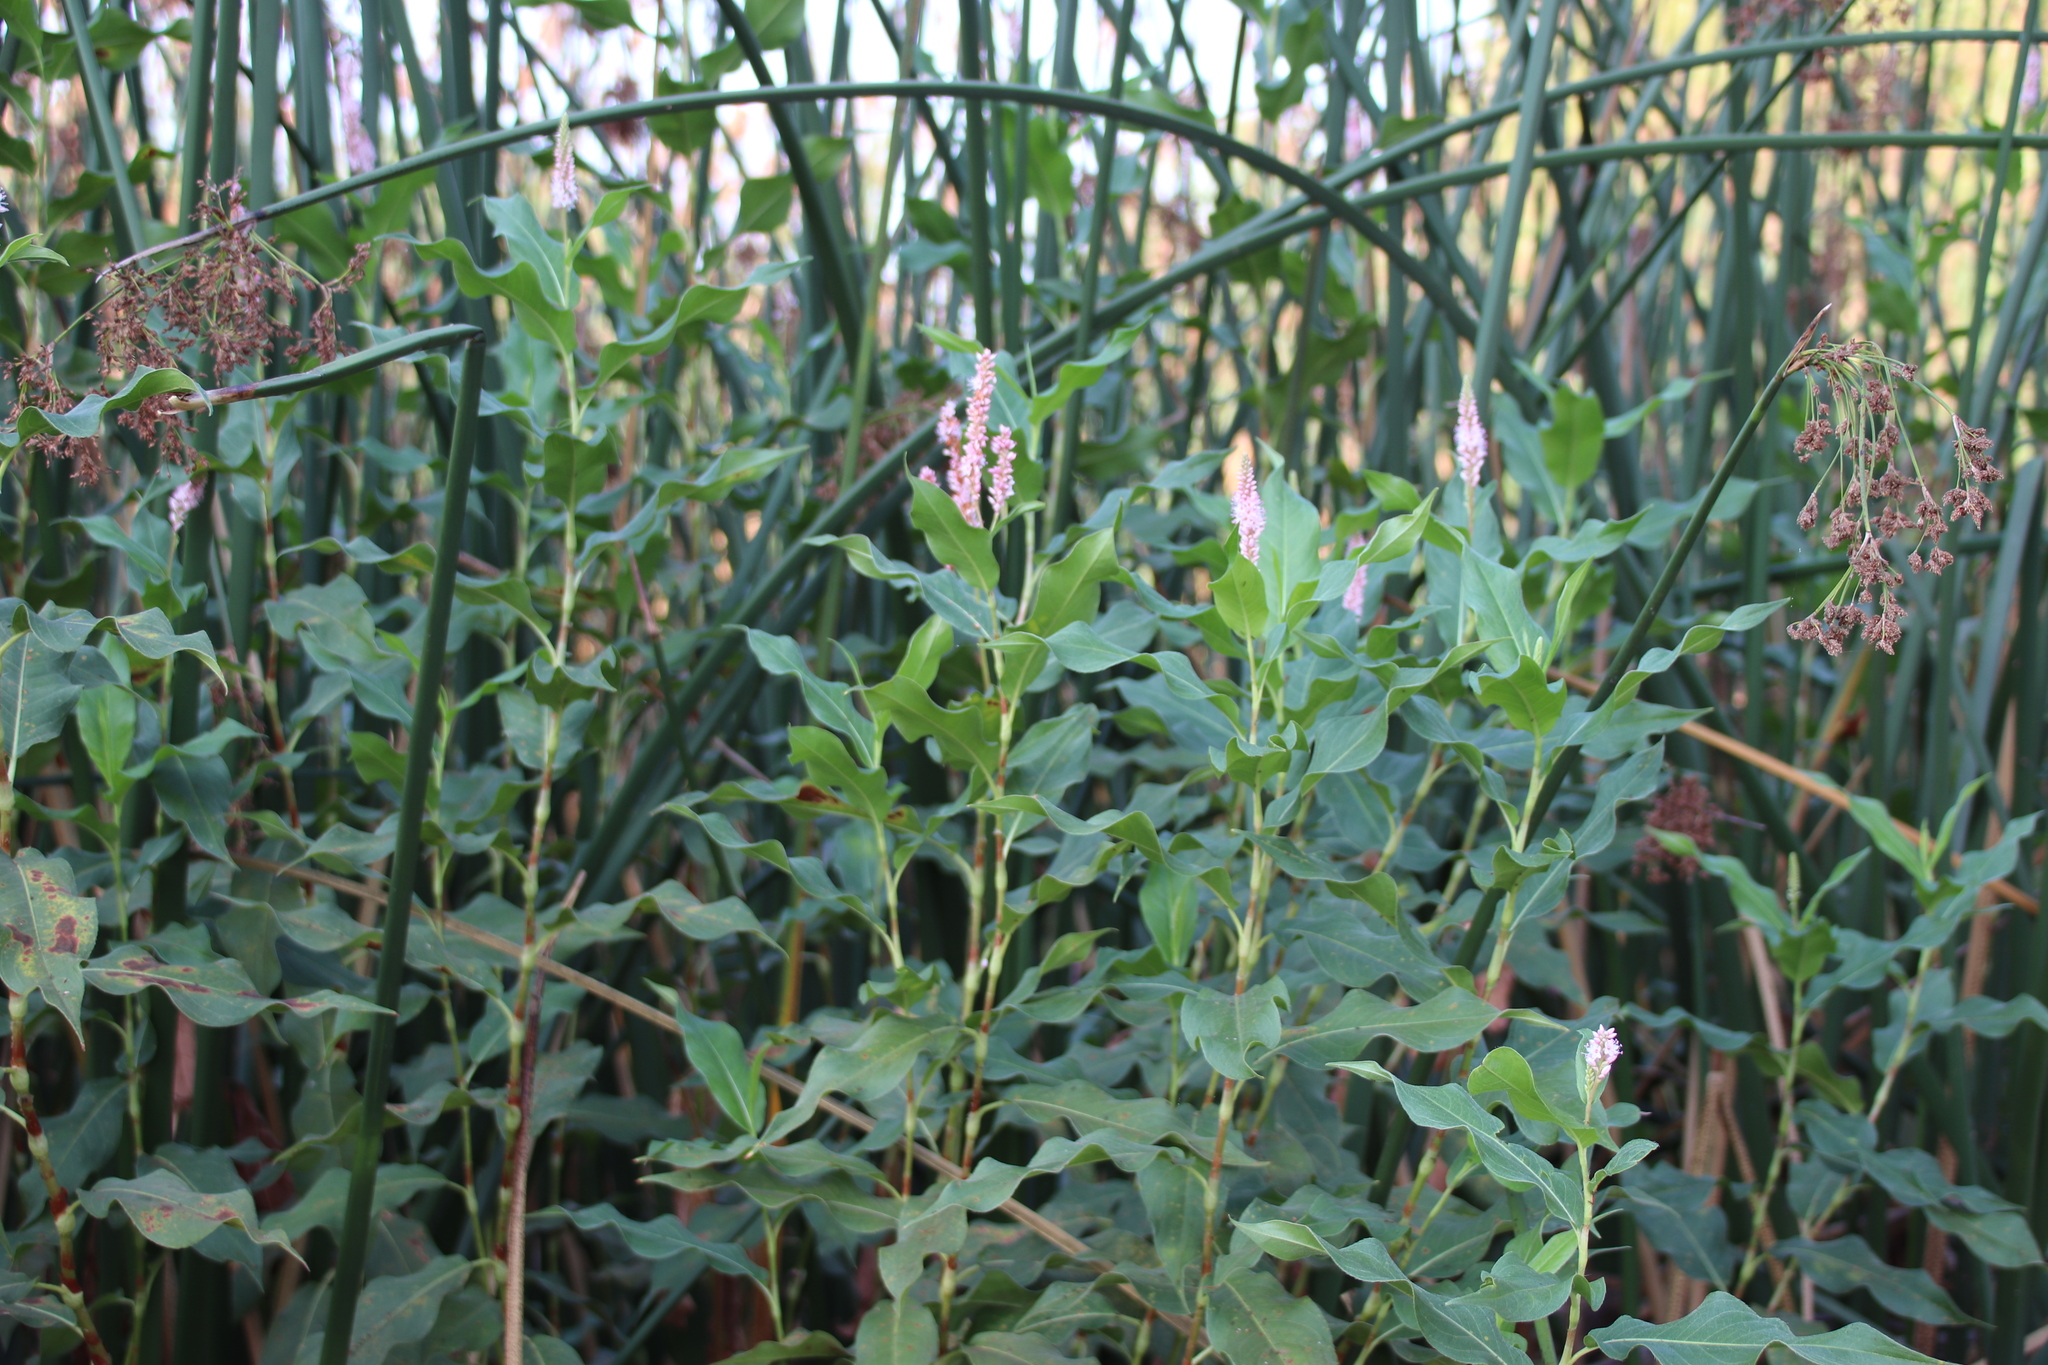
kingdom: Plantae
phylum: Tracheophyta
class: Magnoliopsida
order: Caryophyllales
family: Polygonaceae
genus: Persicaria
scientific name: Persicaria amphibia
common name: Amphibious bistort
